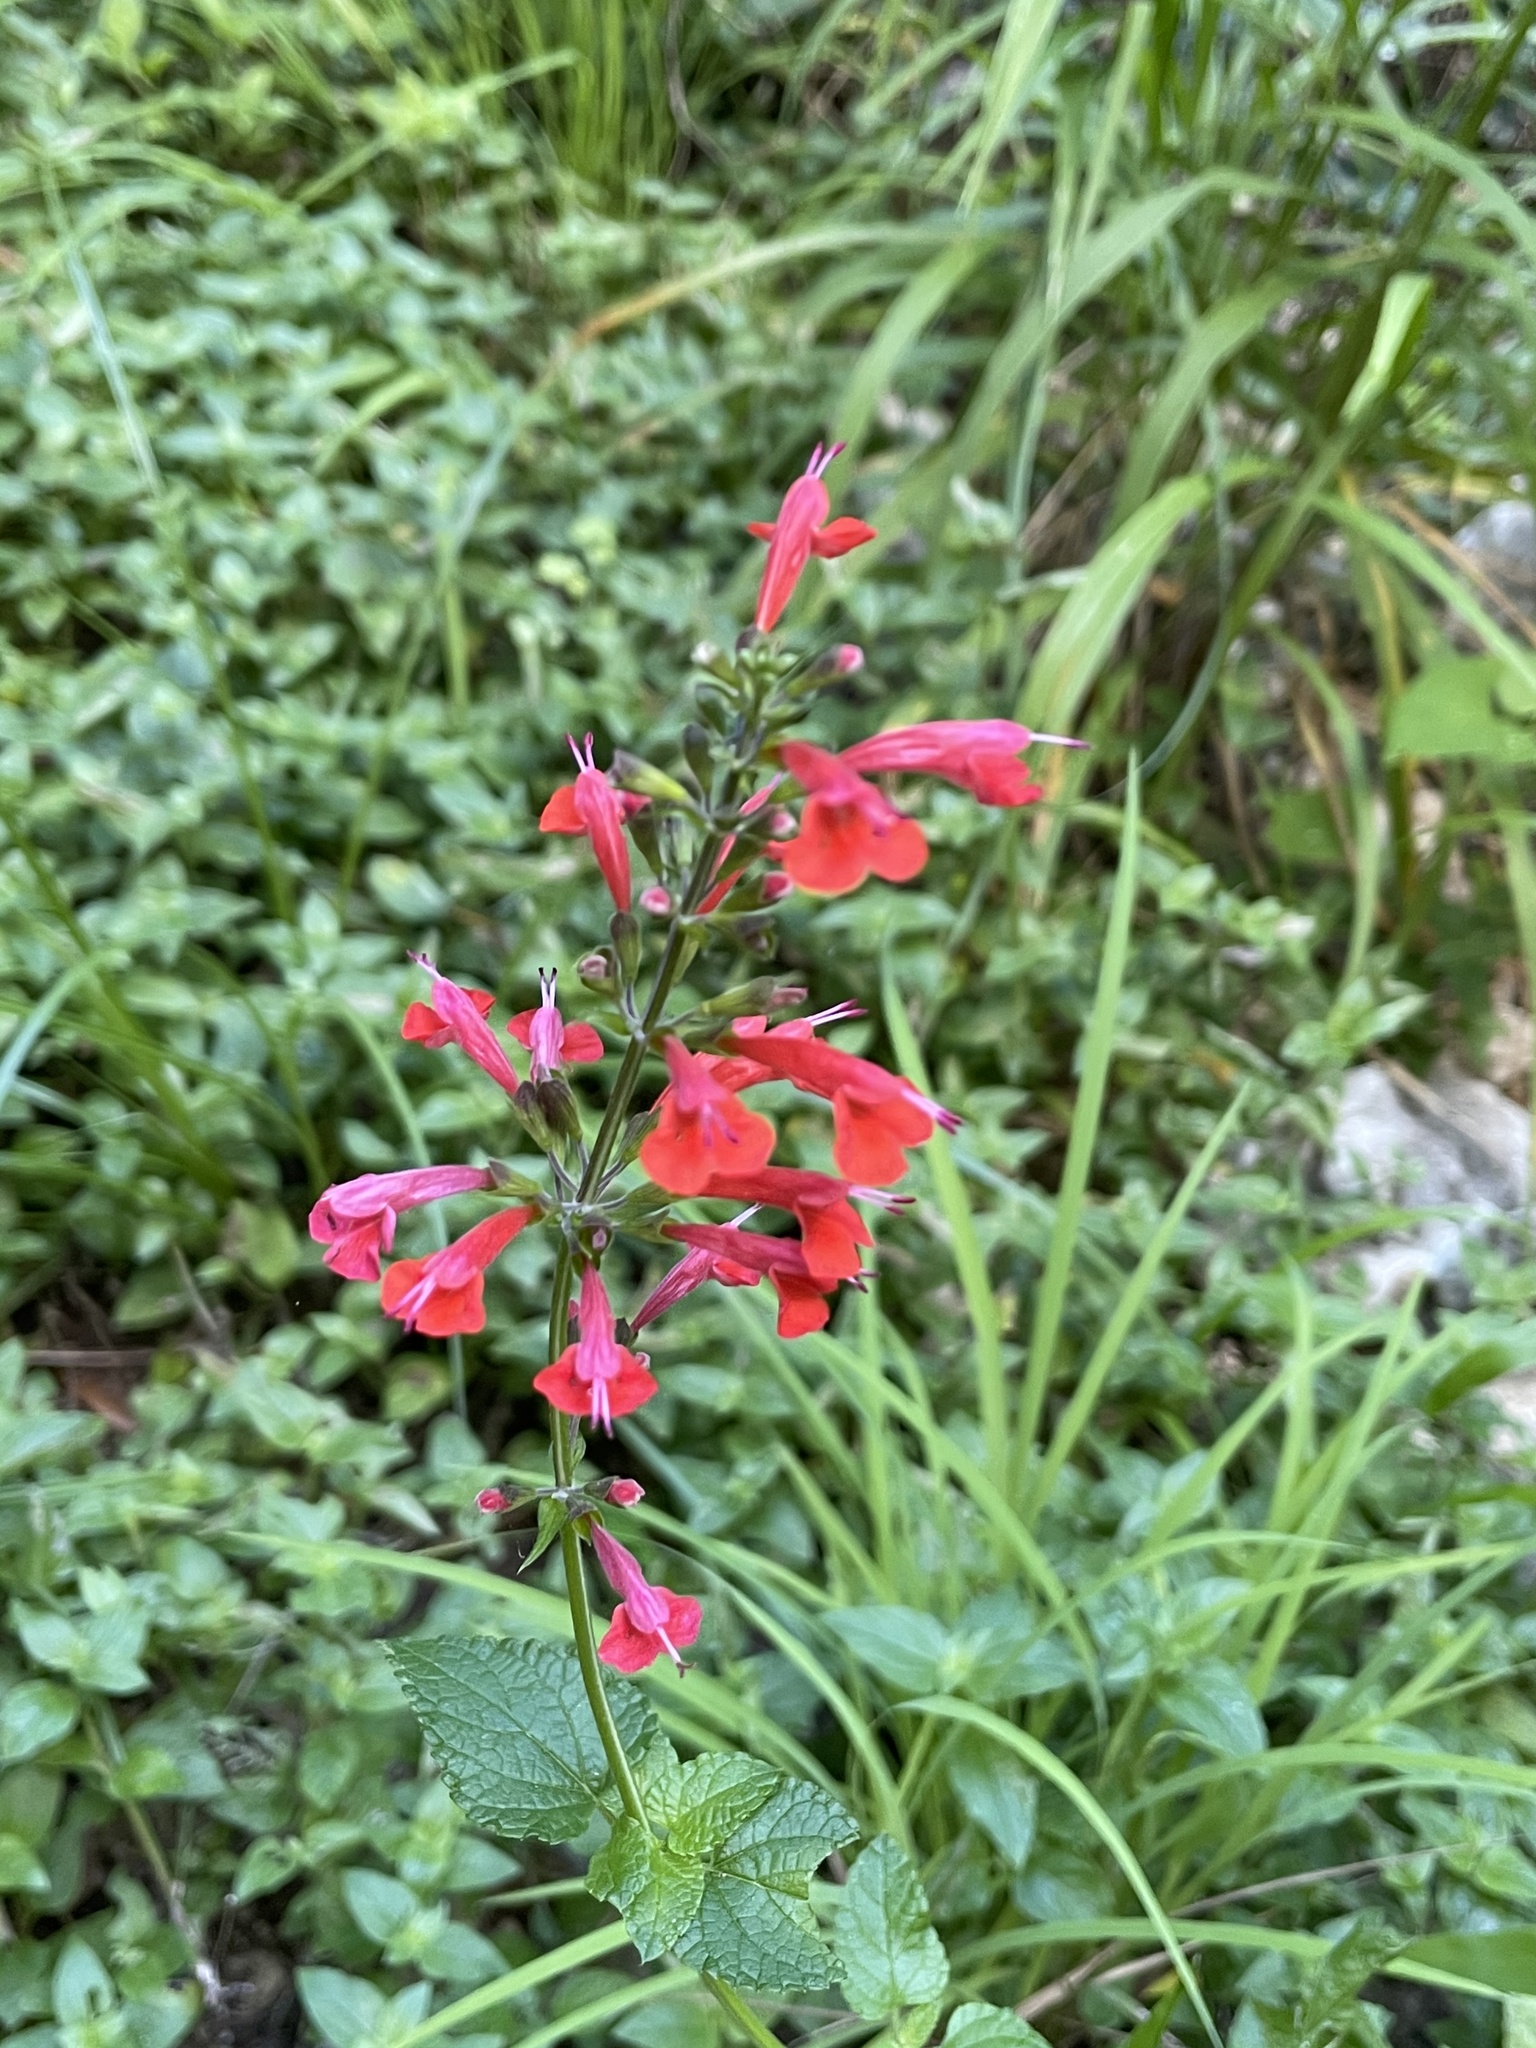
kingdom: Plantae
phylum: Tracheophyta
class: Magnoliopsida
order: Lamiales
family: Lamiaceae
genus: Salvia
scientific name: Salvia coccinea
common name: Blood sage
